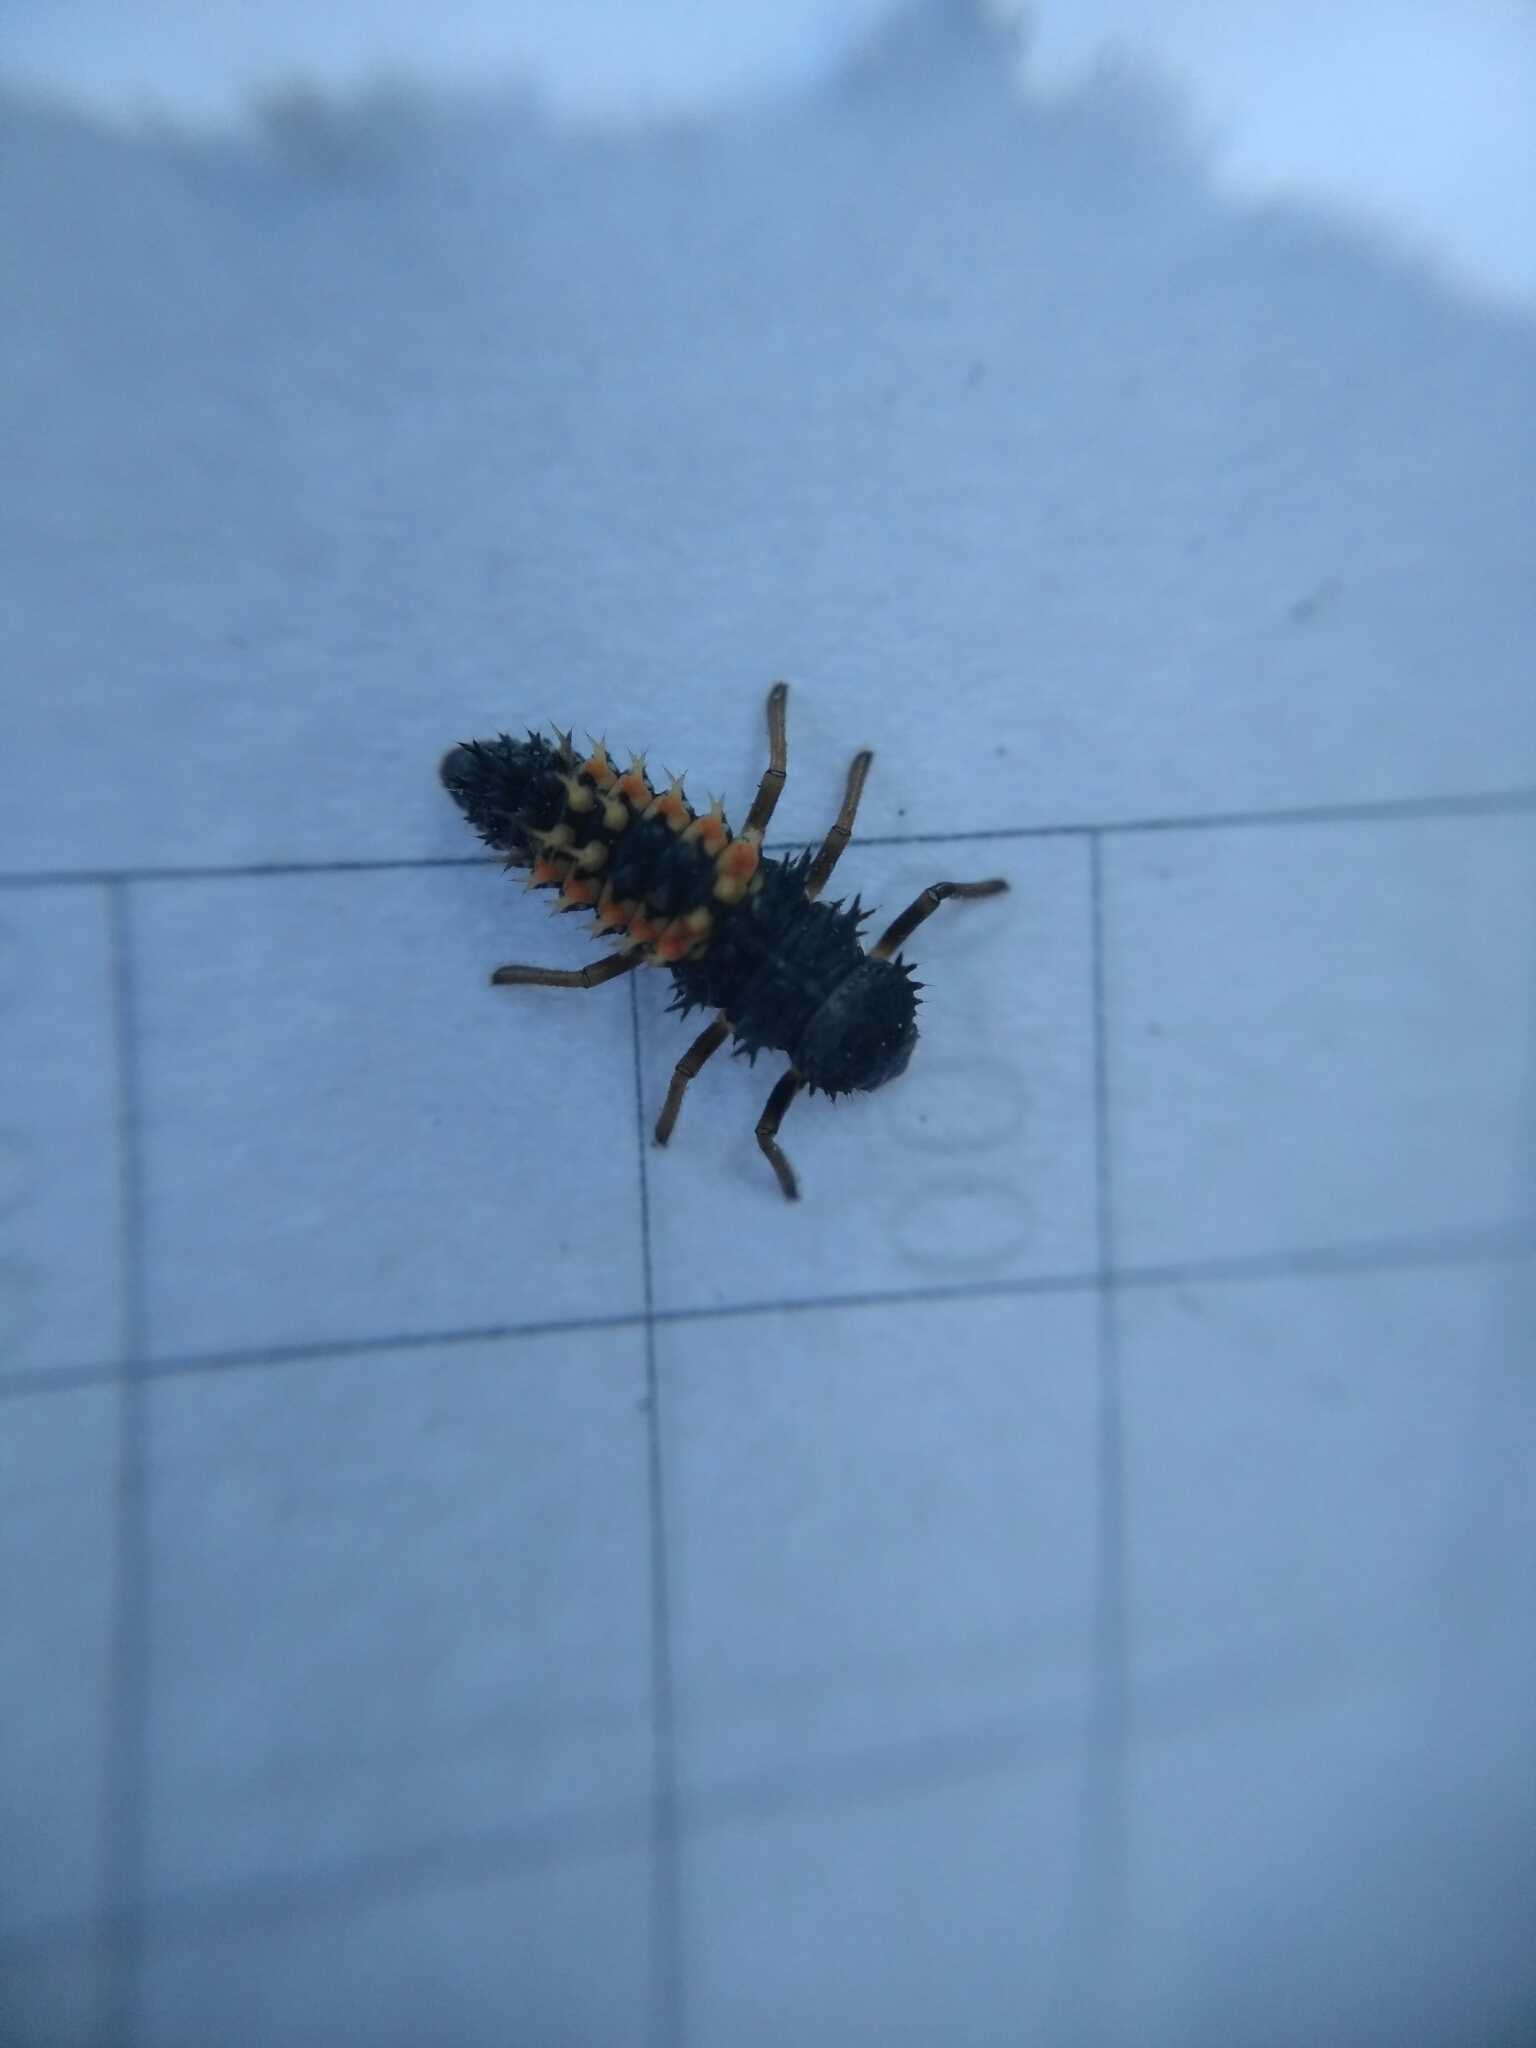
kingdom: Animalia
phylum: Arthropoda
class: Insecta
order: Coleoptera
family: Coccinellidae
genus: Harmonia
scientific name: Harmonia axyridis
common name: Harlequin ladybird
